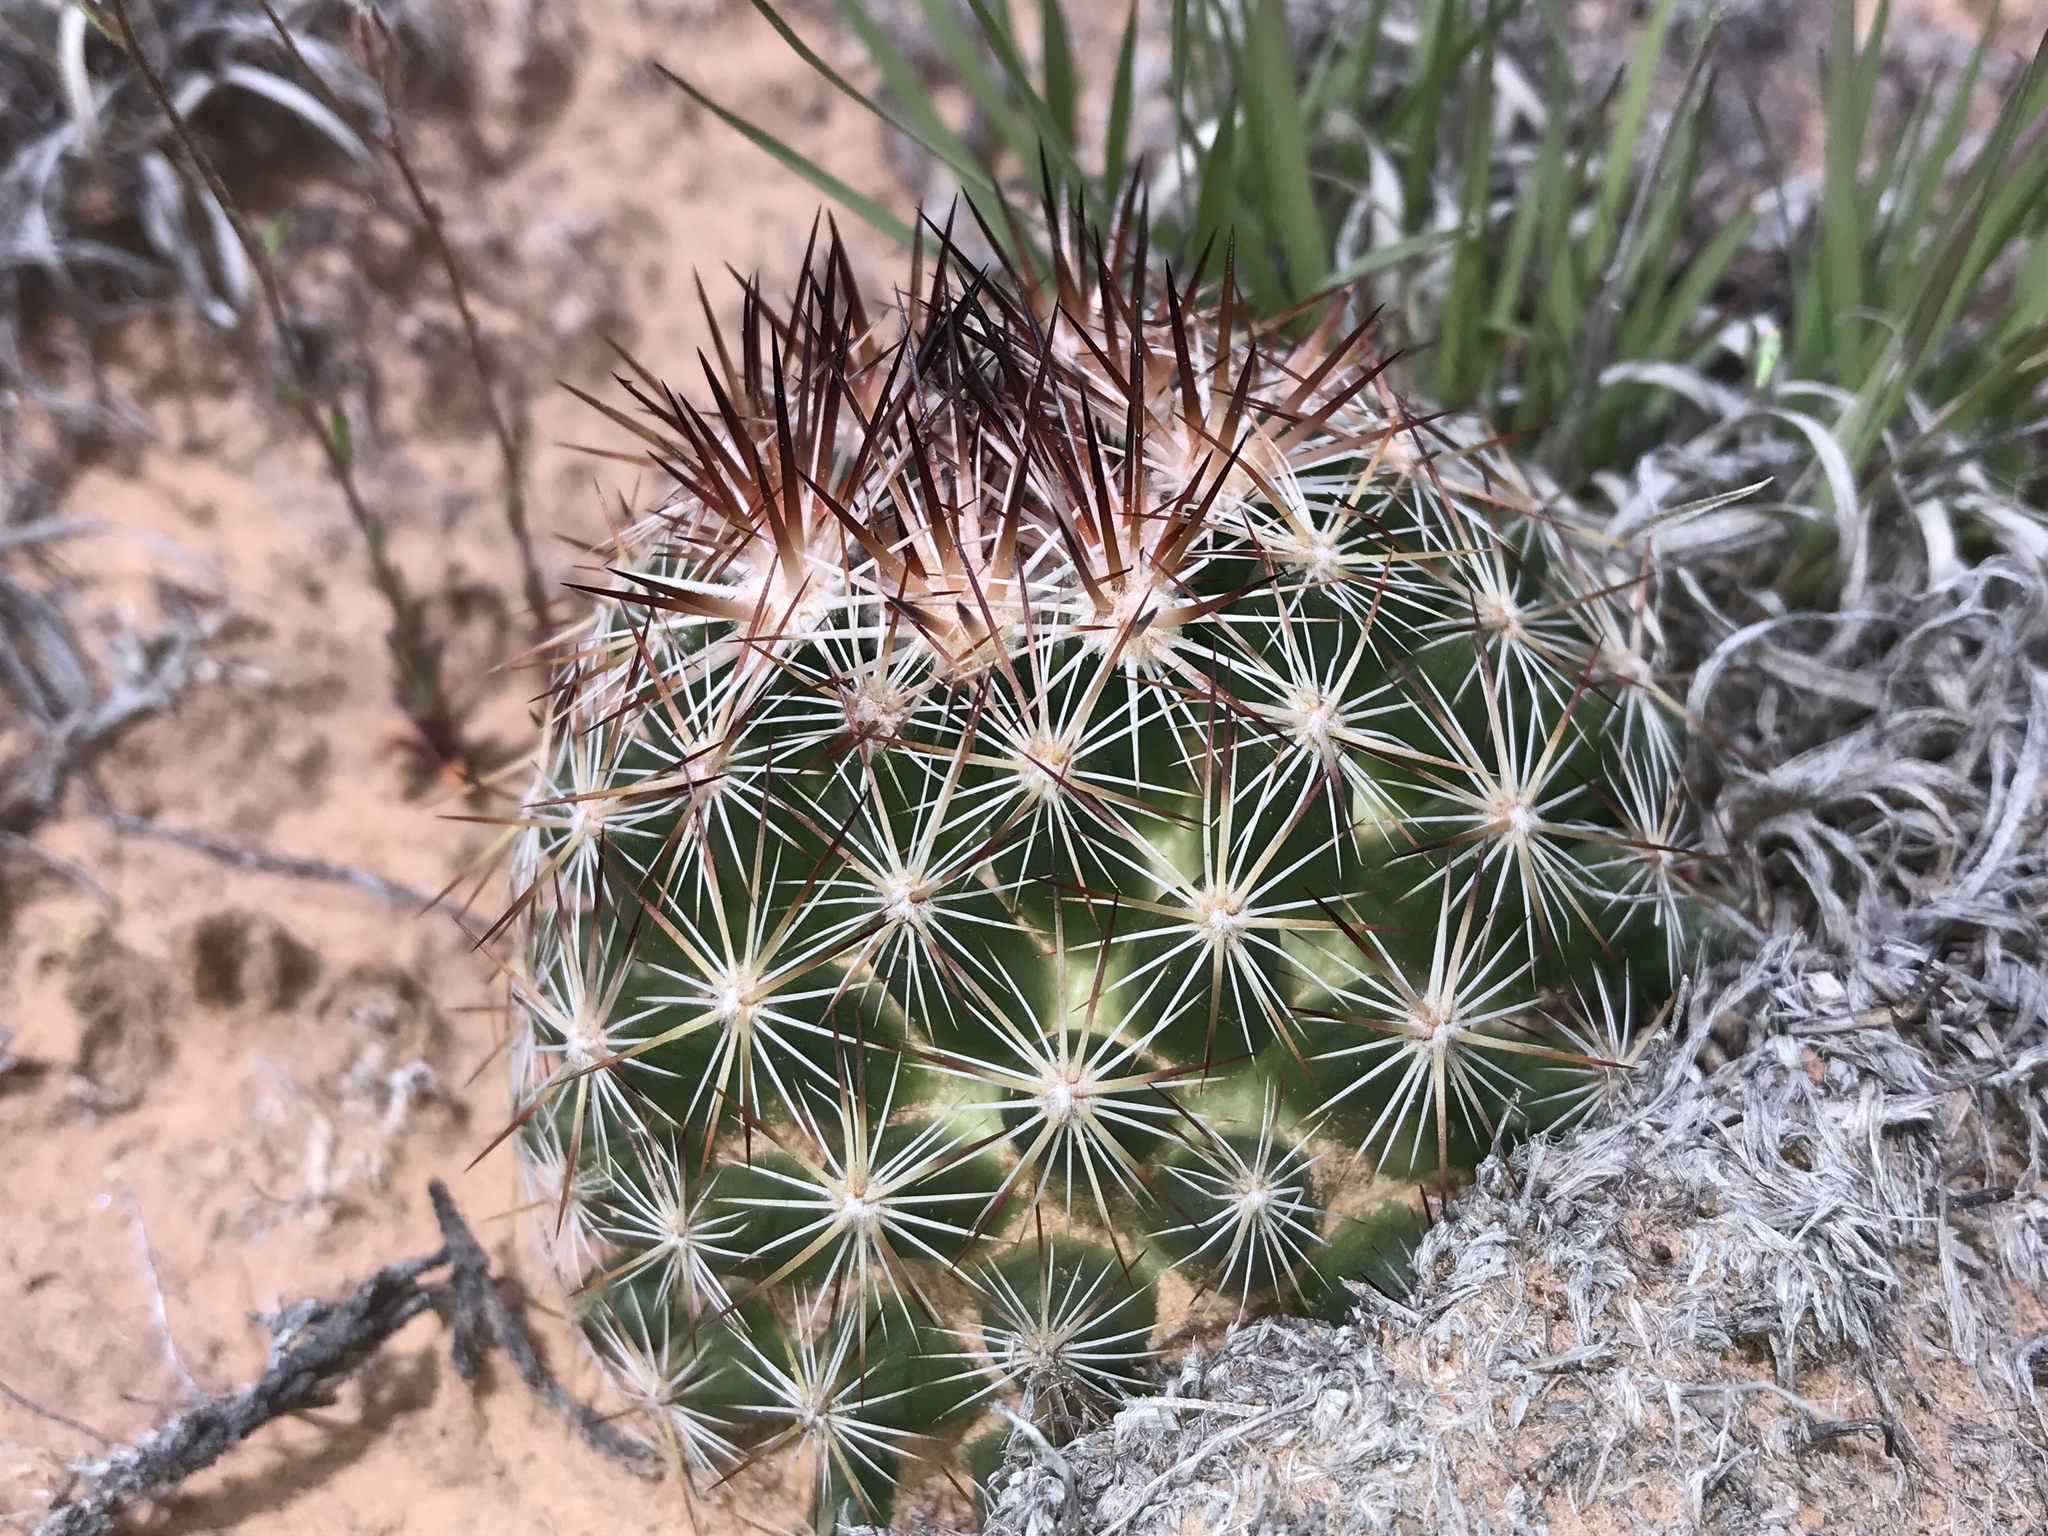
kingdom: Plantae
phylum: Tracheophyta
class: Magnoliopsida
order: Caryophyllales
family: Cactaceae
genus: Pelecyphora
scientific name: Pelecyphora vivipara
